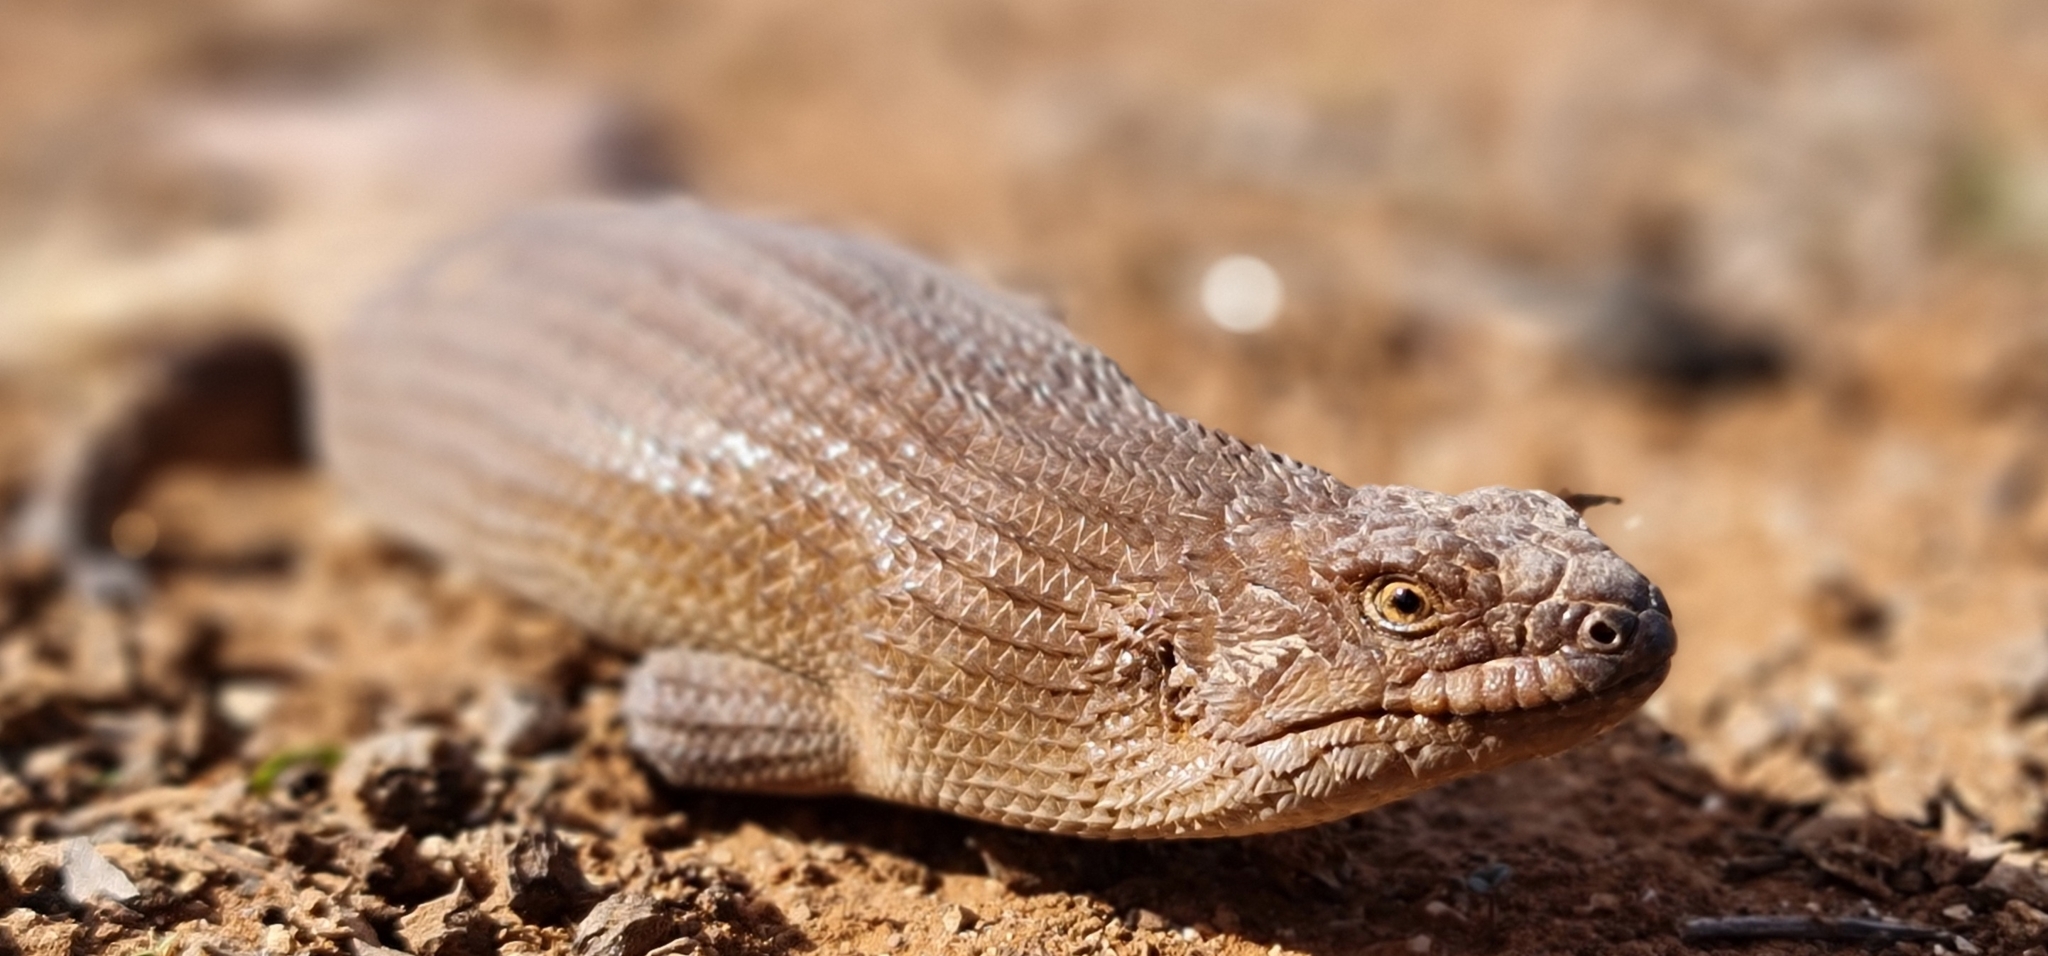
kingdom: Animalia
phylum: Chordata
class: Squamata
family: Scincidae
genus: Egernia
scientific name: Egernia stokesii
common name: Gidgee skink
